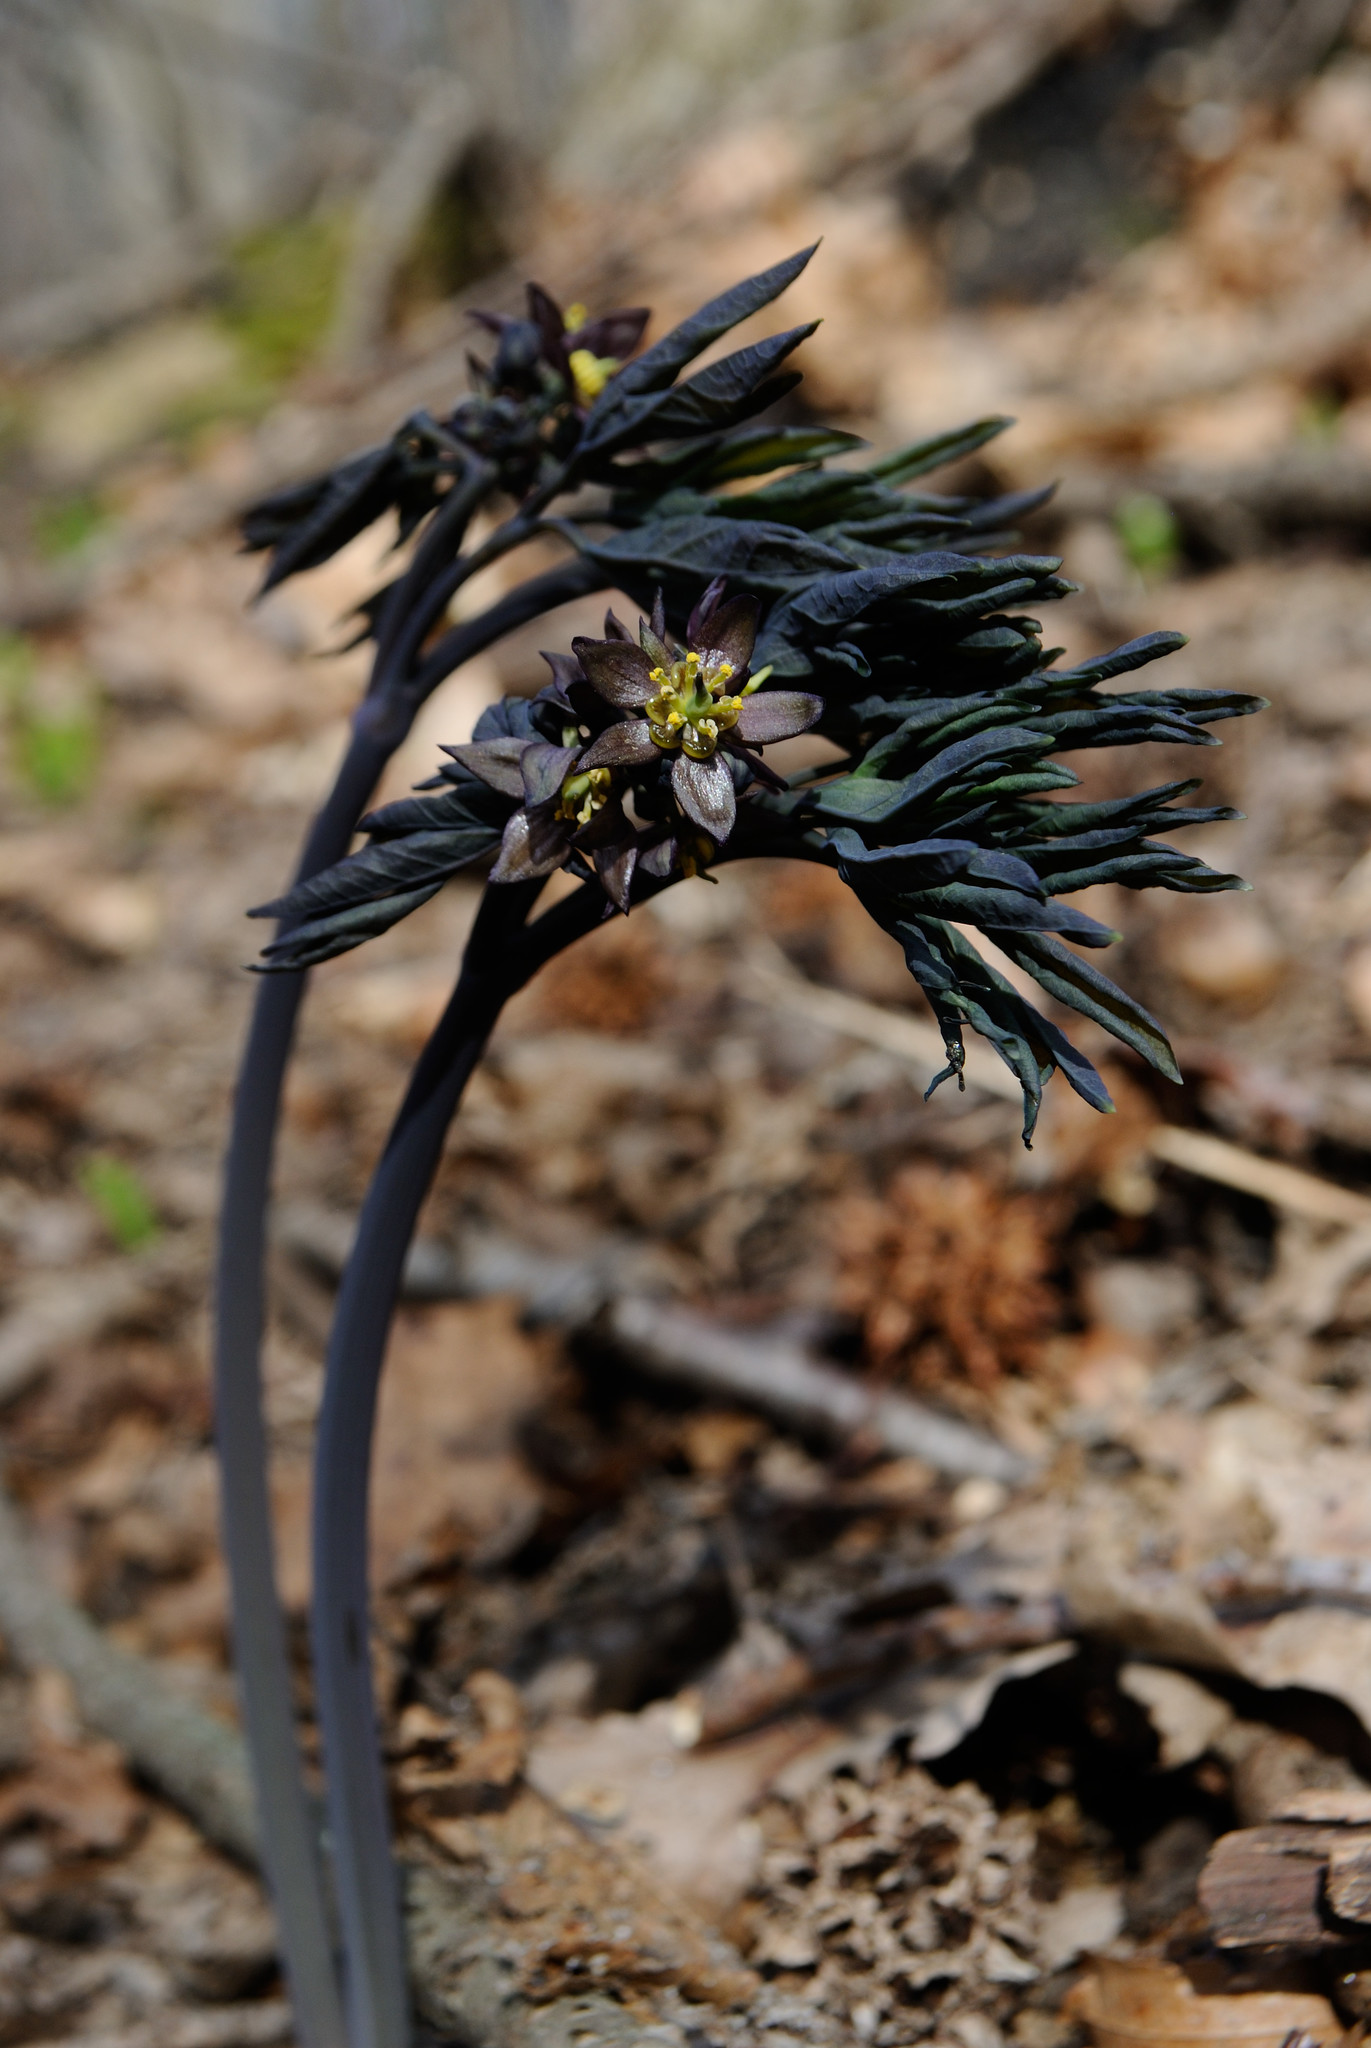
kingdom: Plantae
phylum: Tracheophyta
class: Magnoliopsida
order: Ranunculales
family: Berberidaceae
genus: Caulophyllum
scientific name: Caulophyllum giganteum
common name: Blue cohosh
